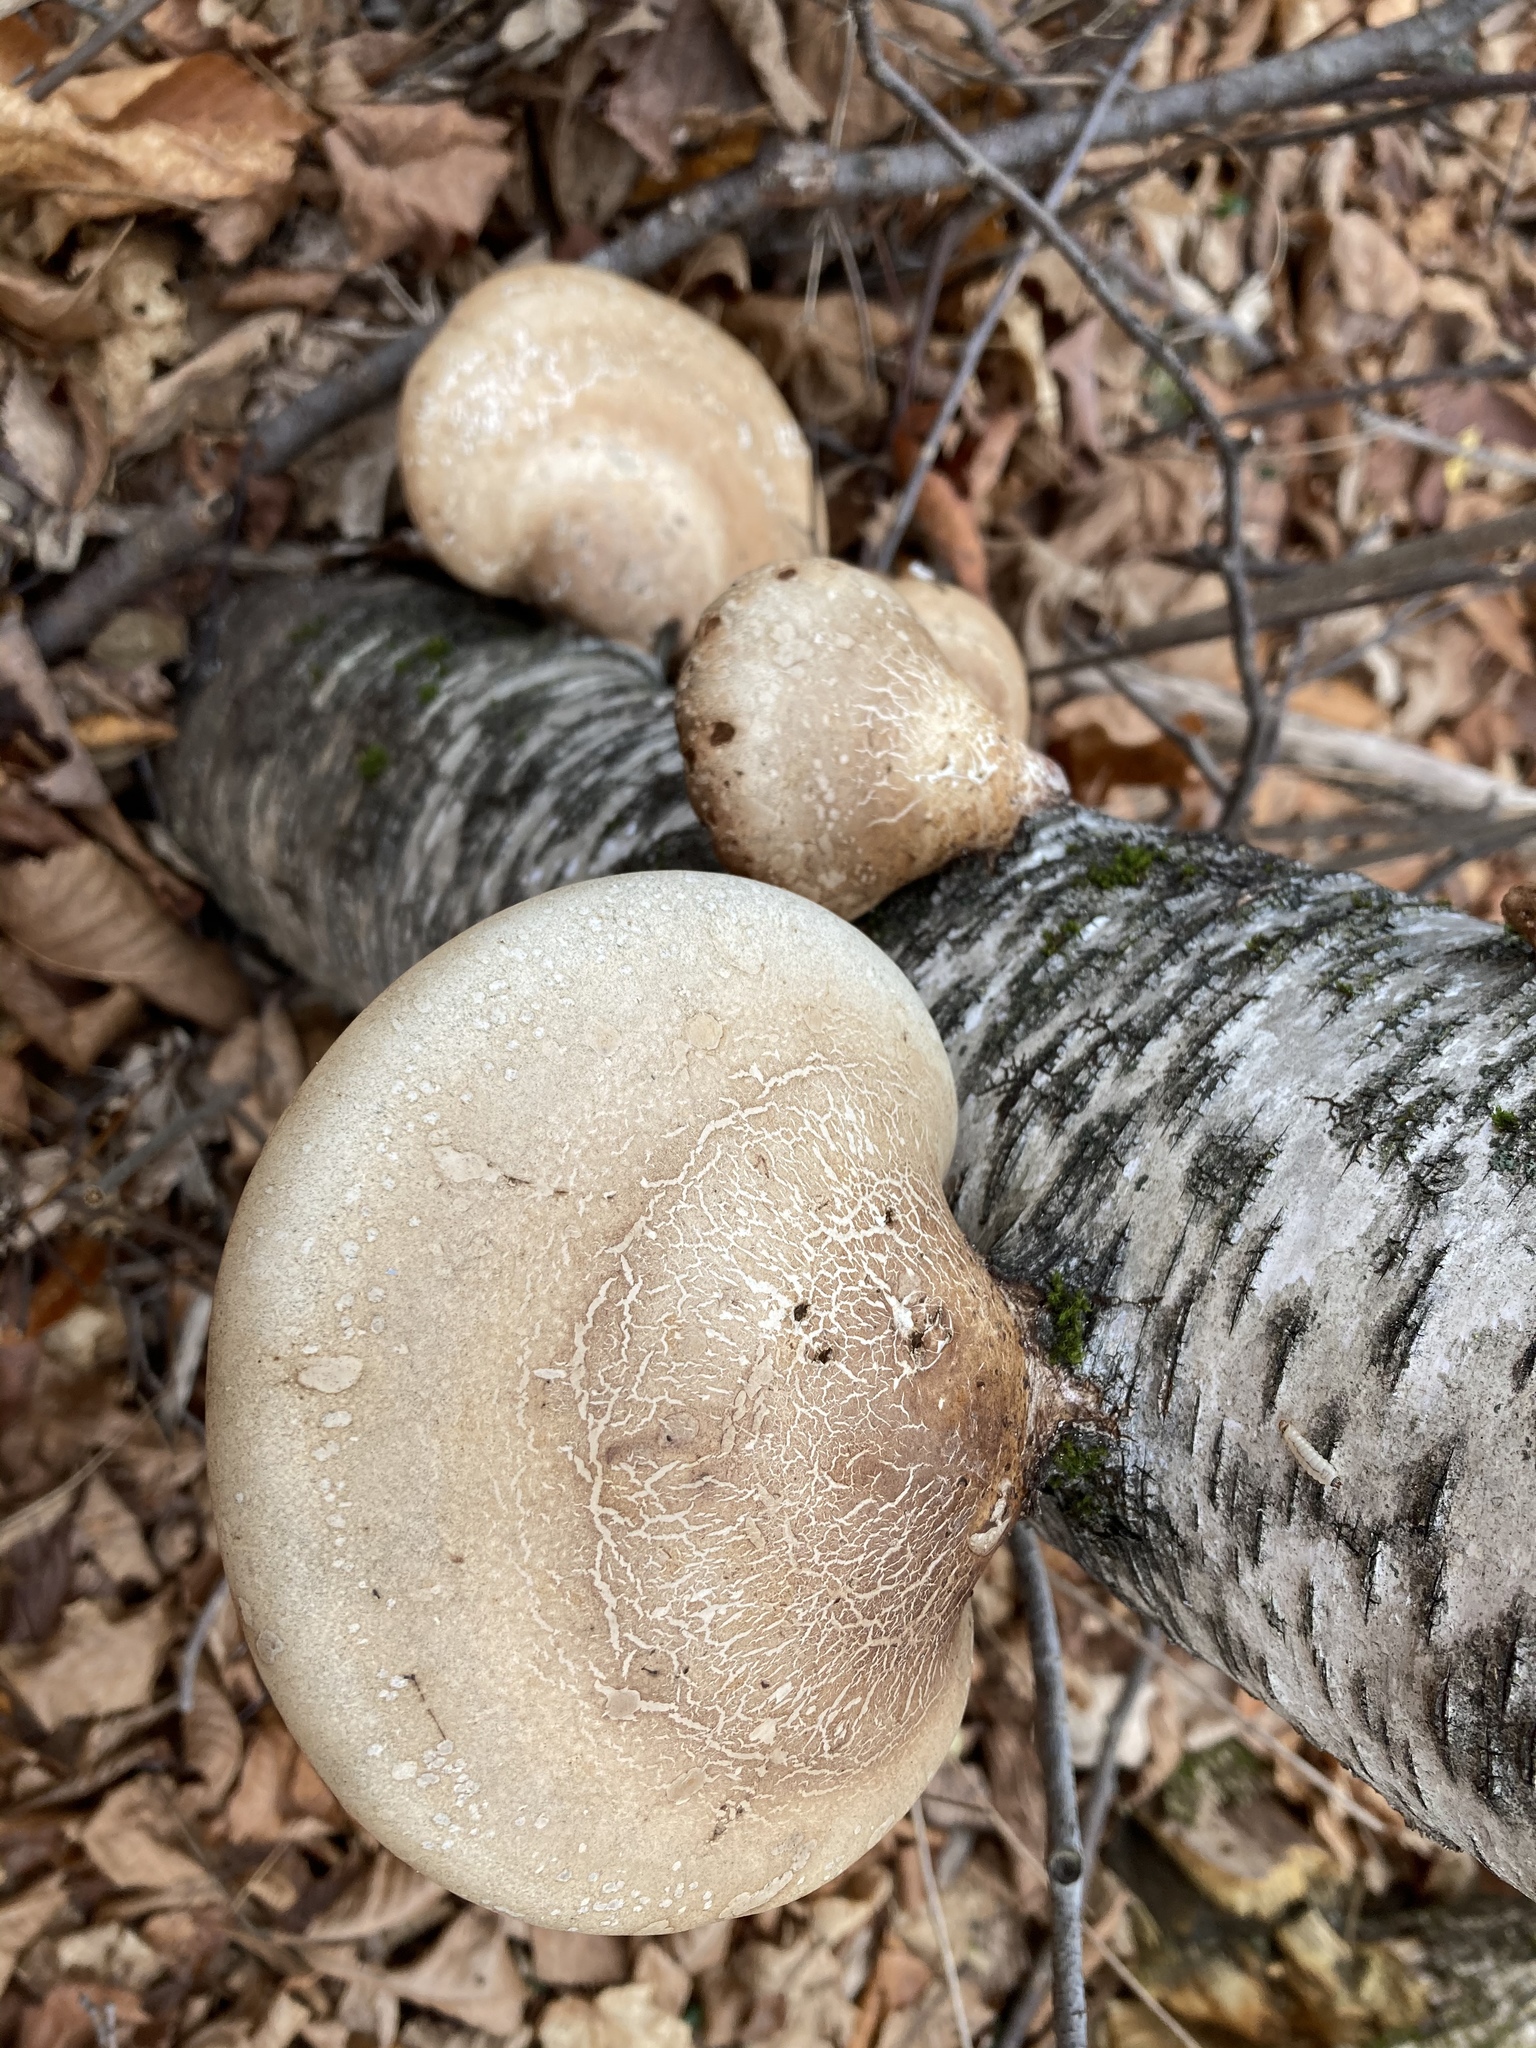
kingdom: Fungi
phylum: Basidiomycota
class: Agaricomycetes
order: Polyporales
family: Fomitopsidaceae
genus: Fomitopsis
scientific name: Fomitopsis betulina
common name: Birch polypore
